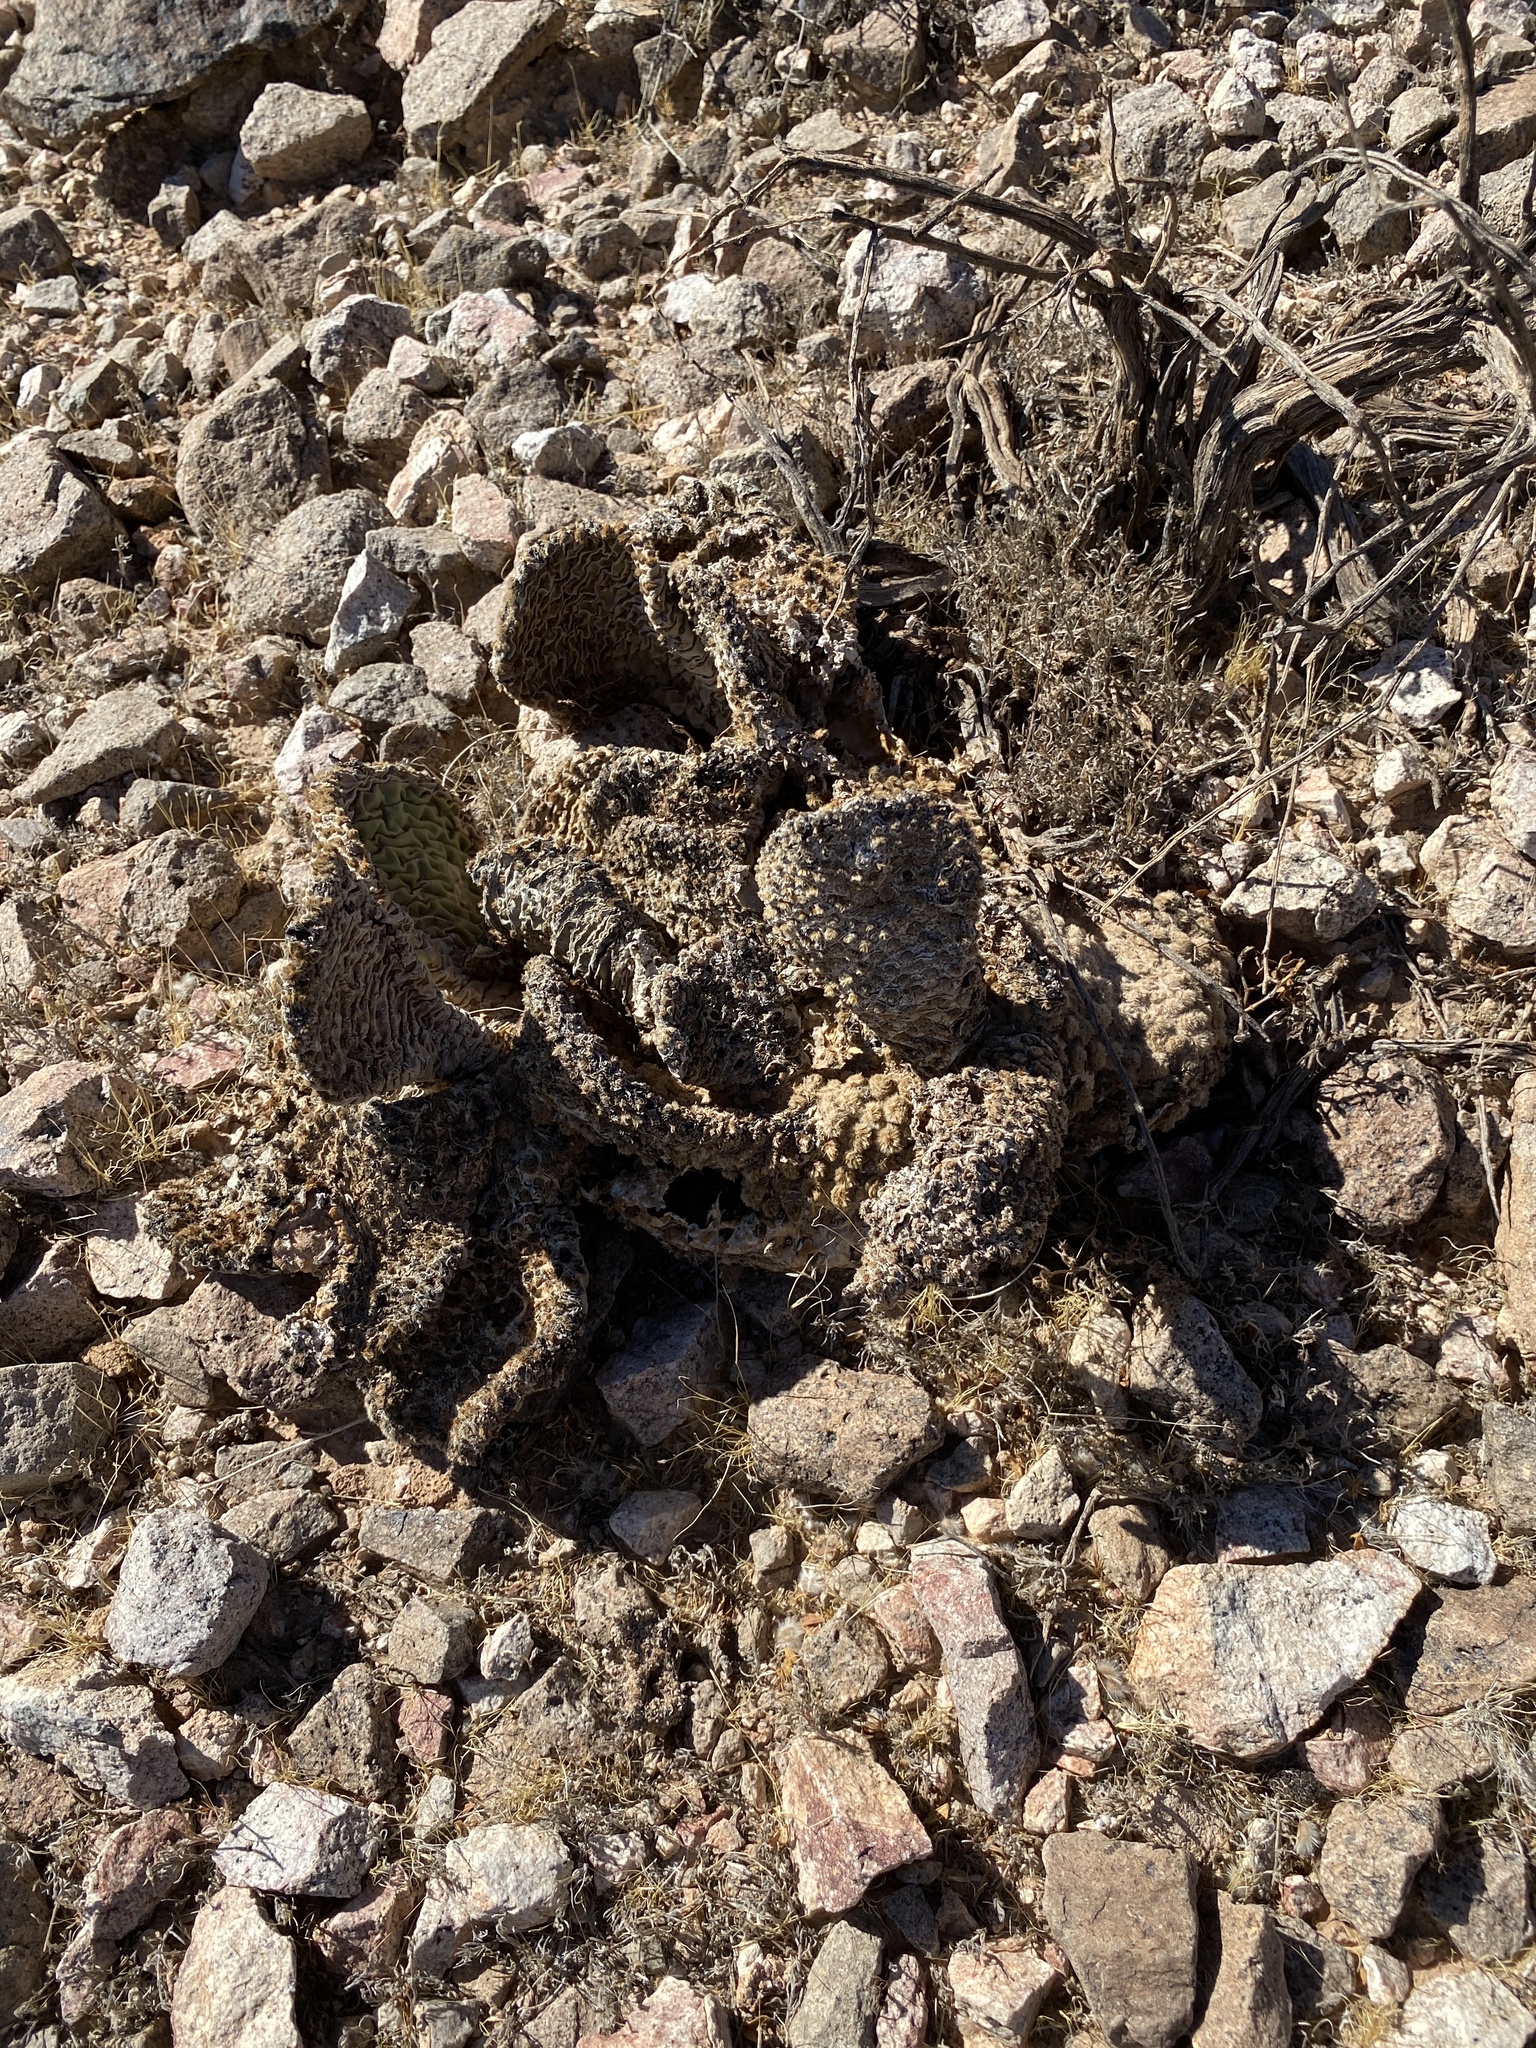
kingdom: Plantae
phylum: Tracheophyta
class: Magnoliopsida
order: Caryophyllales
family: Cactaceae
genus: Opuntia
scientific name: Opuntia basilaris
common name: Beavertail prickly-pear
